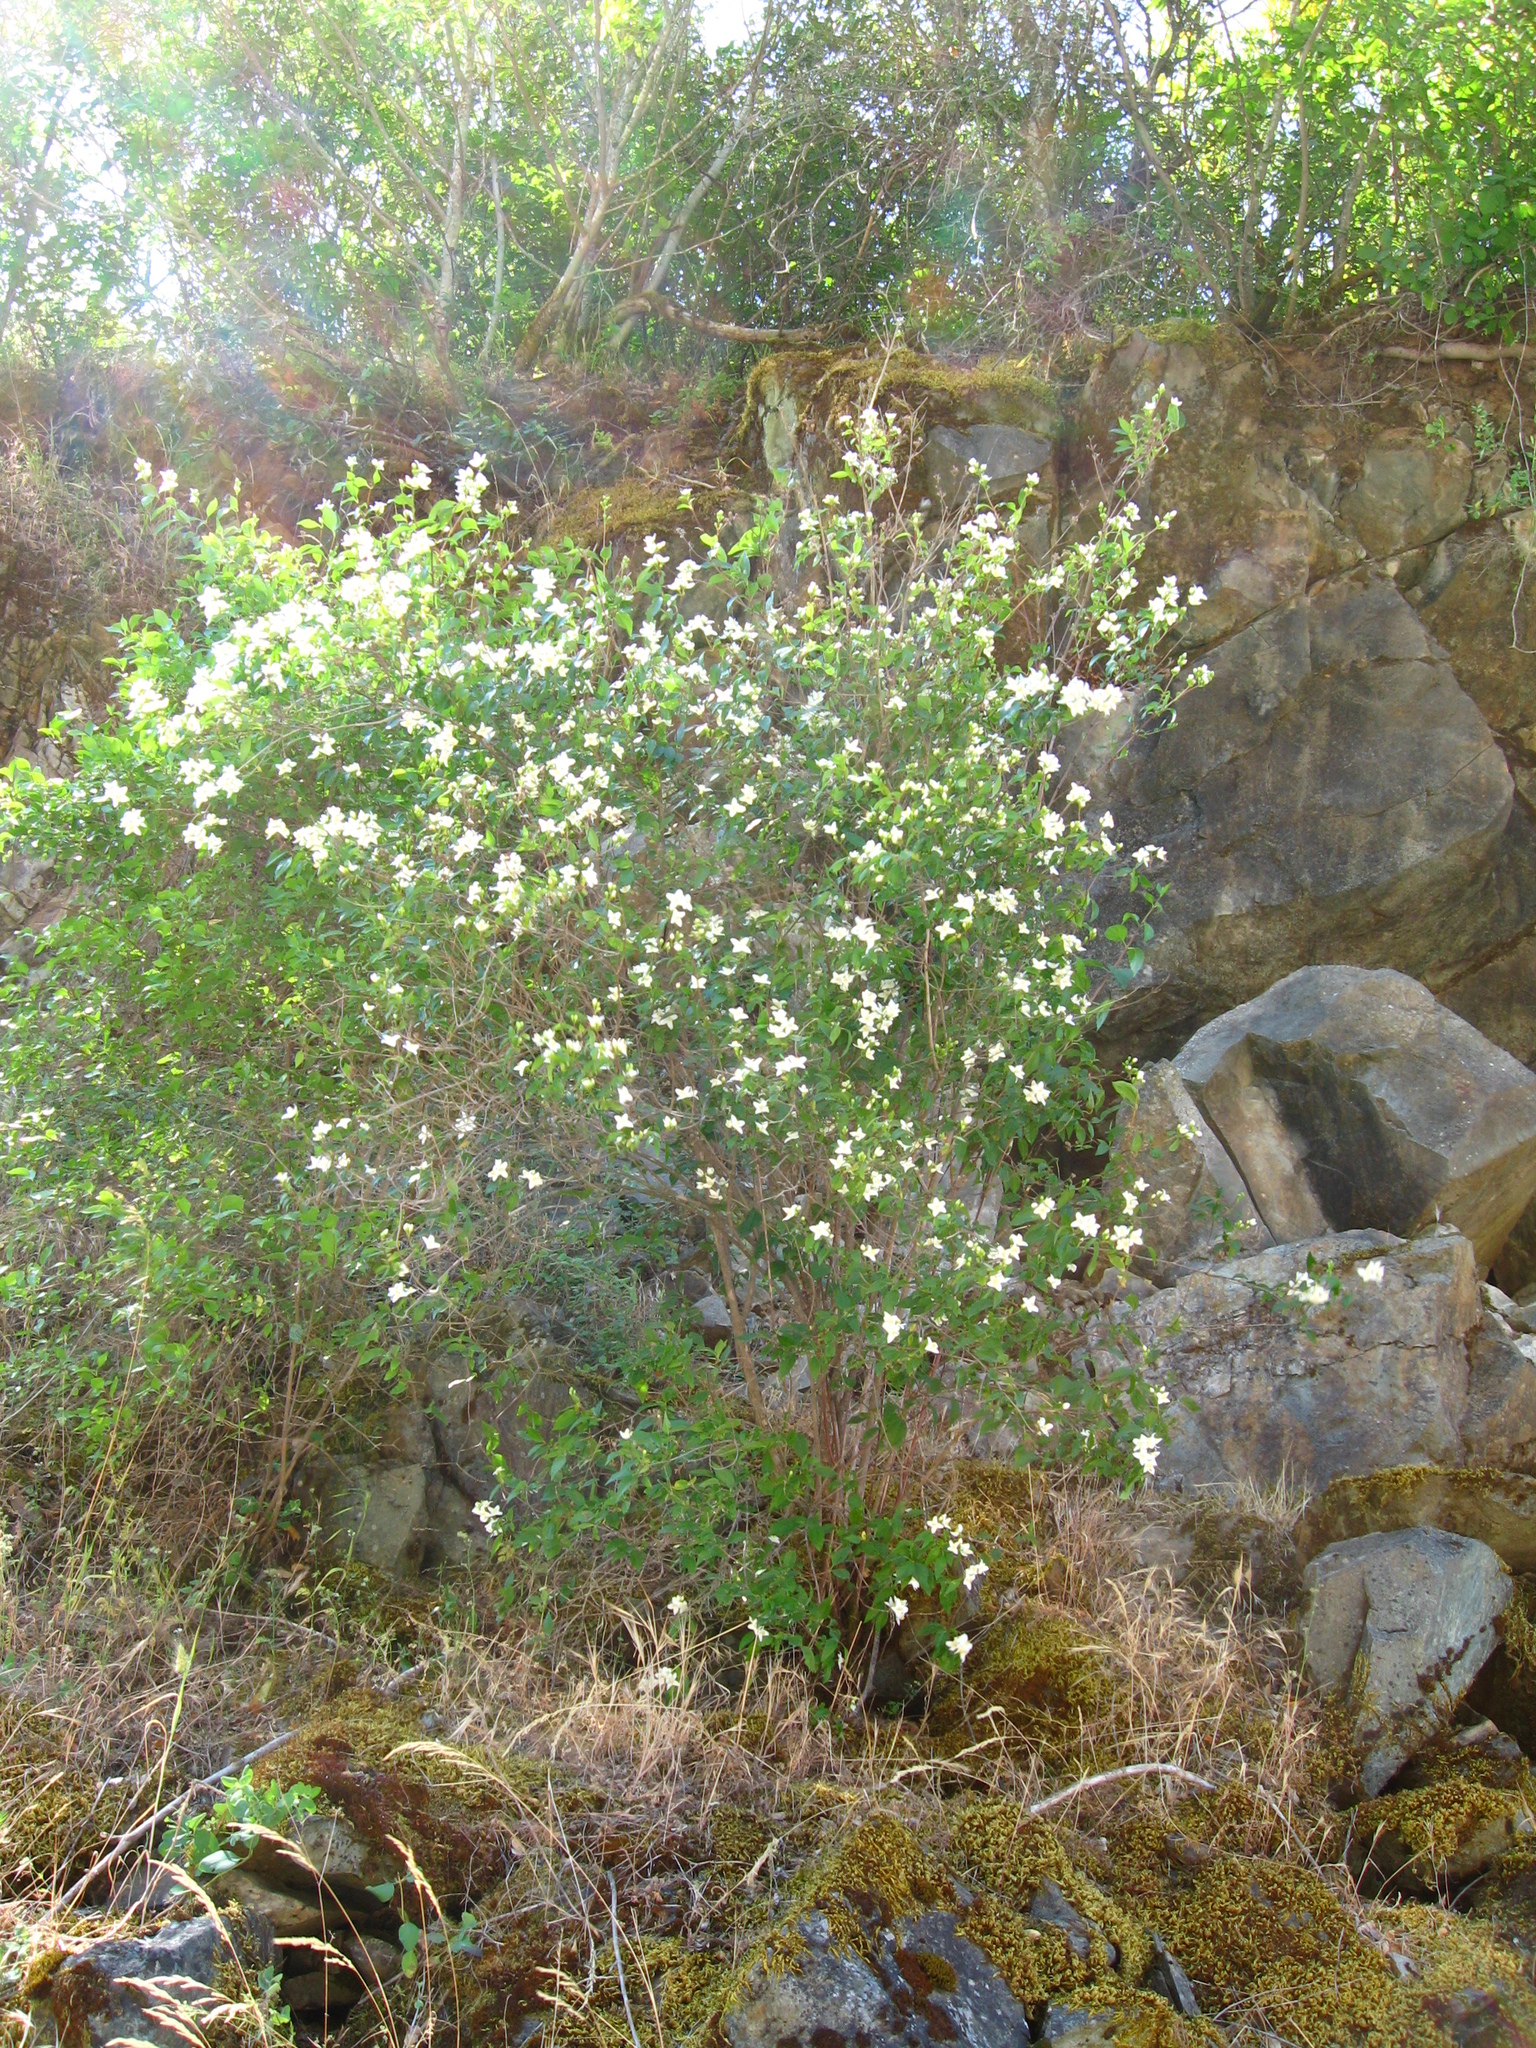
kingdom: Plantae
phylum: Tracheophyta
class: Magnoliopsida
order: Cornales
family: Hydrangeaceae
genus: Philadelphus
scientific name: Philadelphus lewisii
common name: Lewis's mock orange
